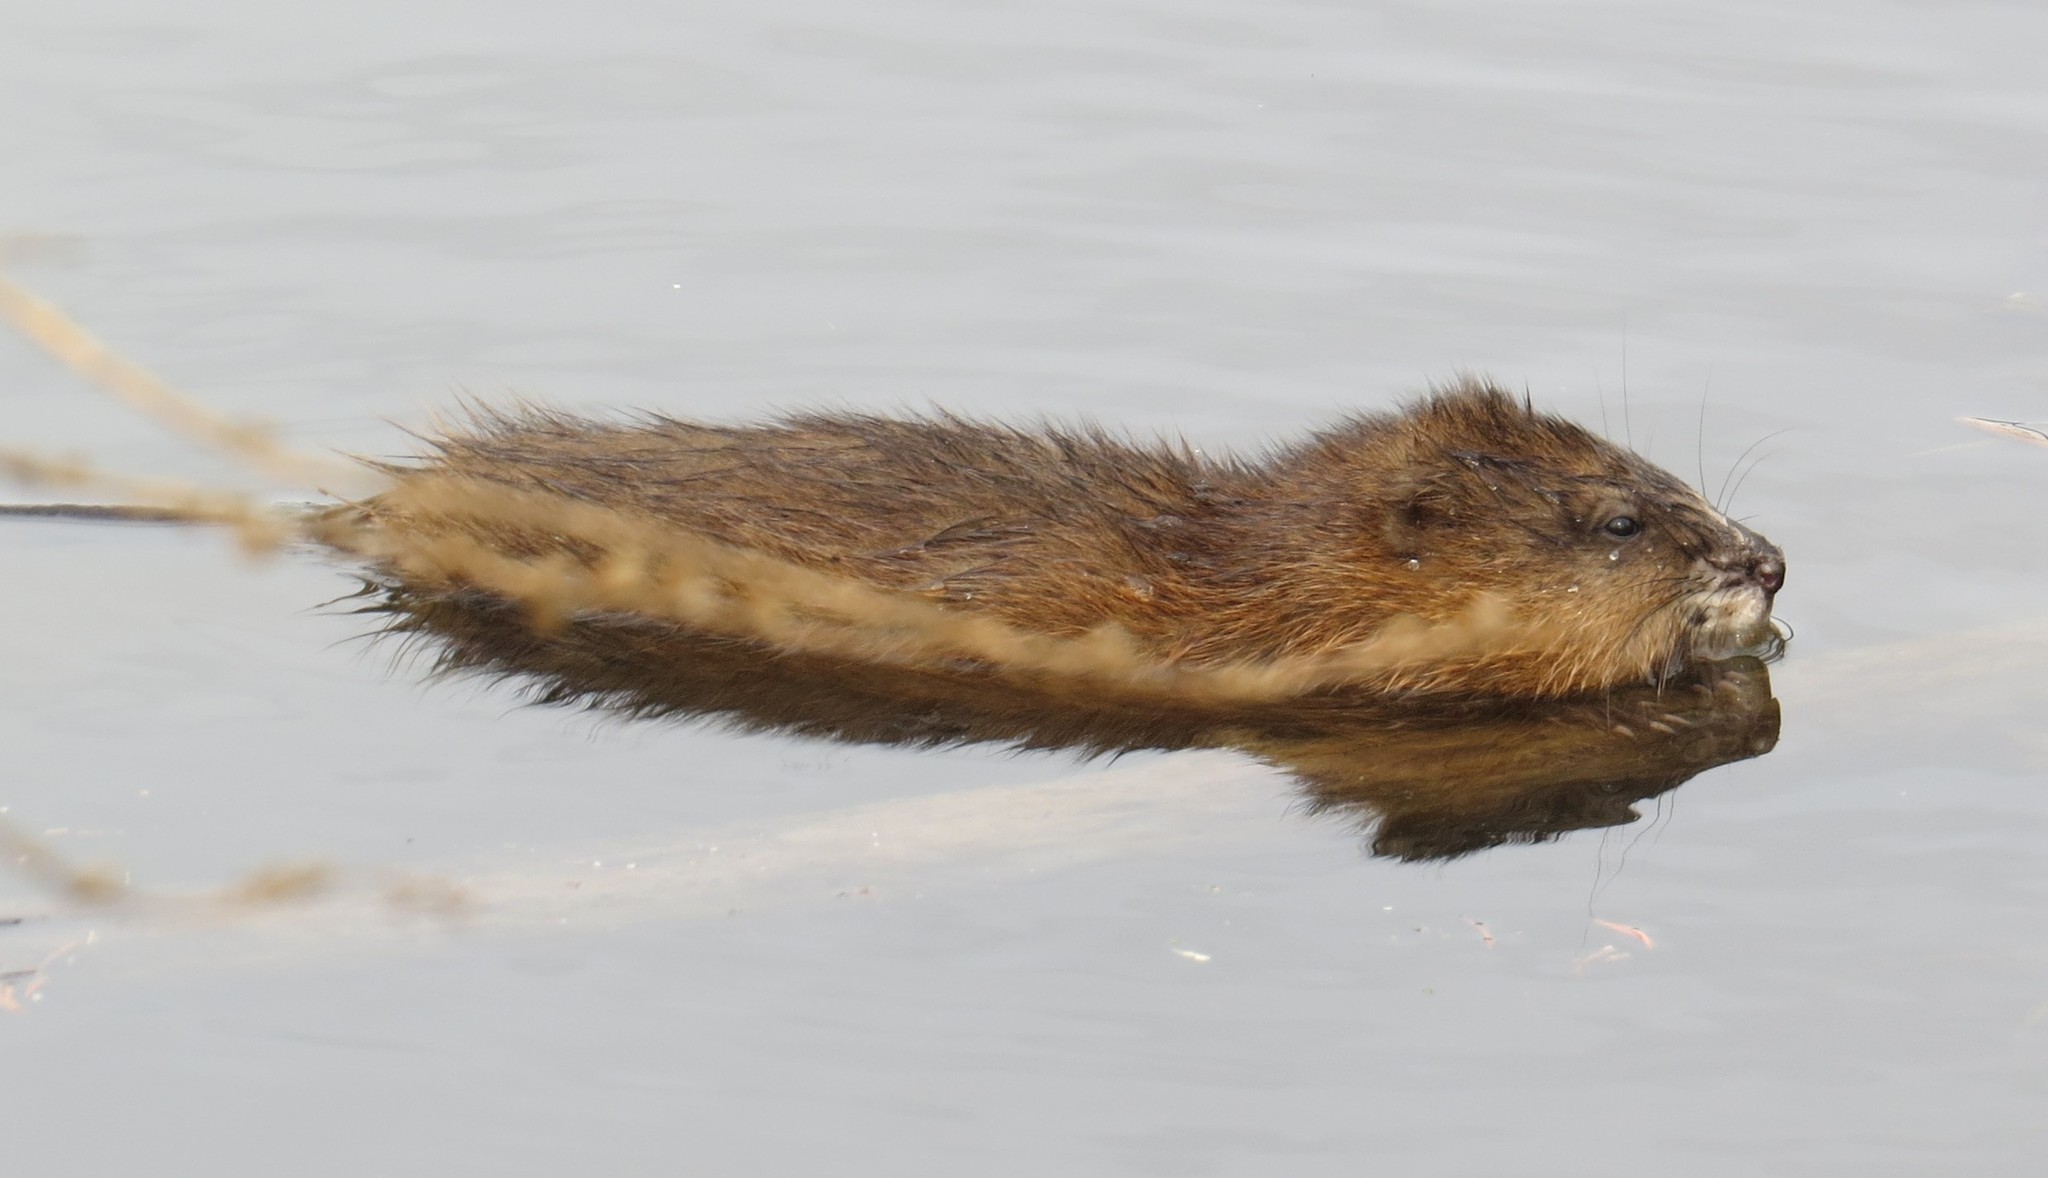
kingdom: Animalia
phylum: Chordata
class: Mammalia
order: Rodentia
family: Cricetidae
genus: Ondatra
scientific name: Ondatra zibethicus
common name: Muskrat
